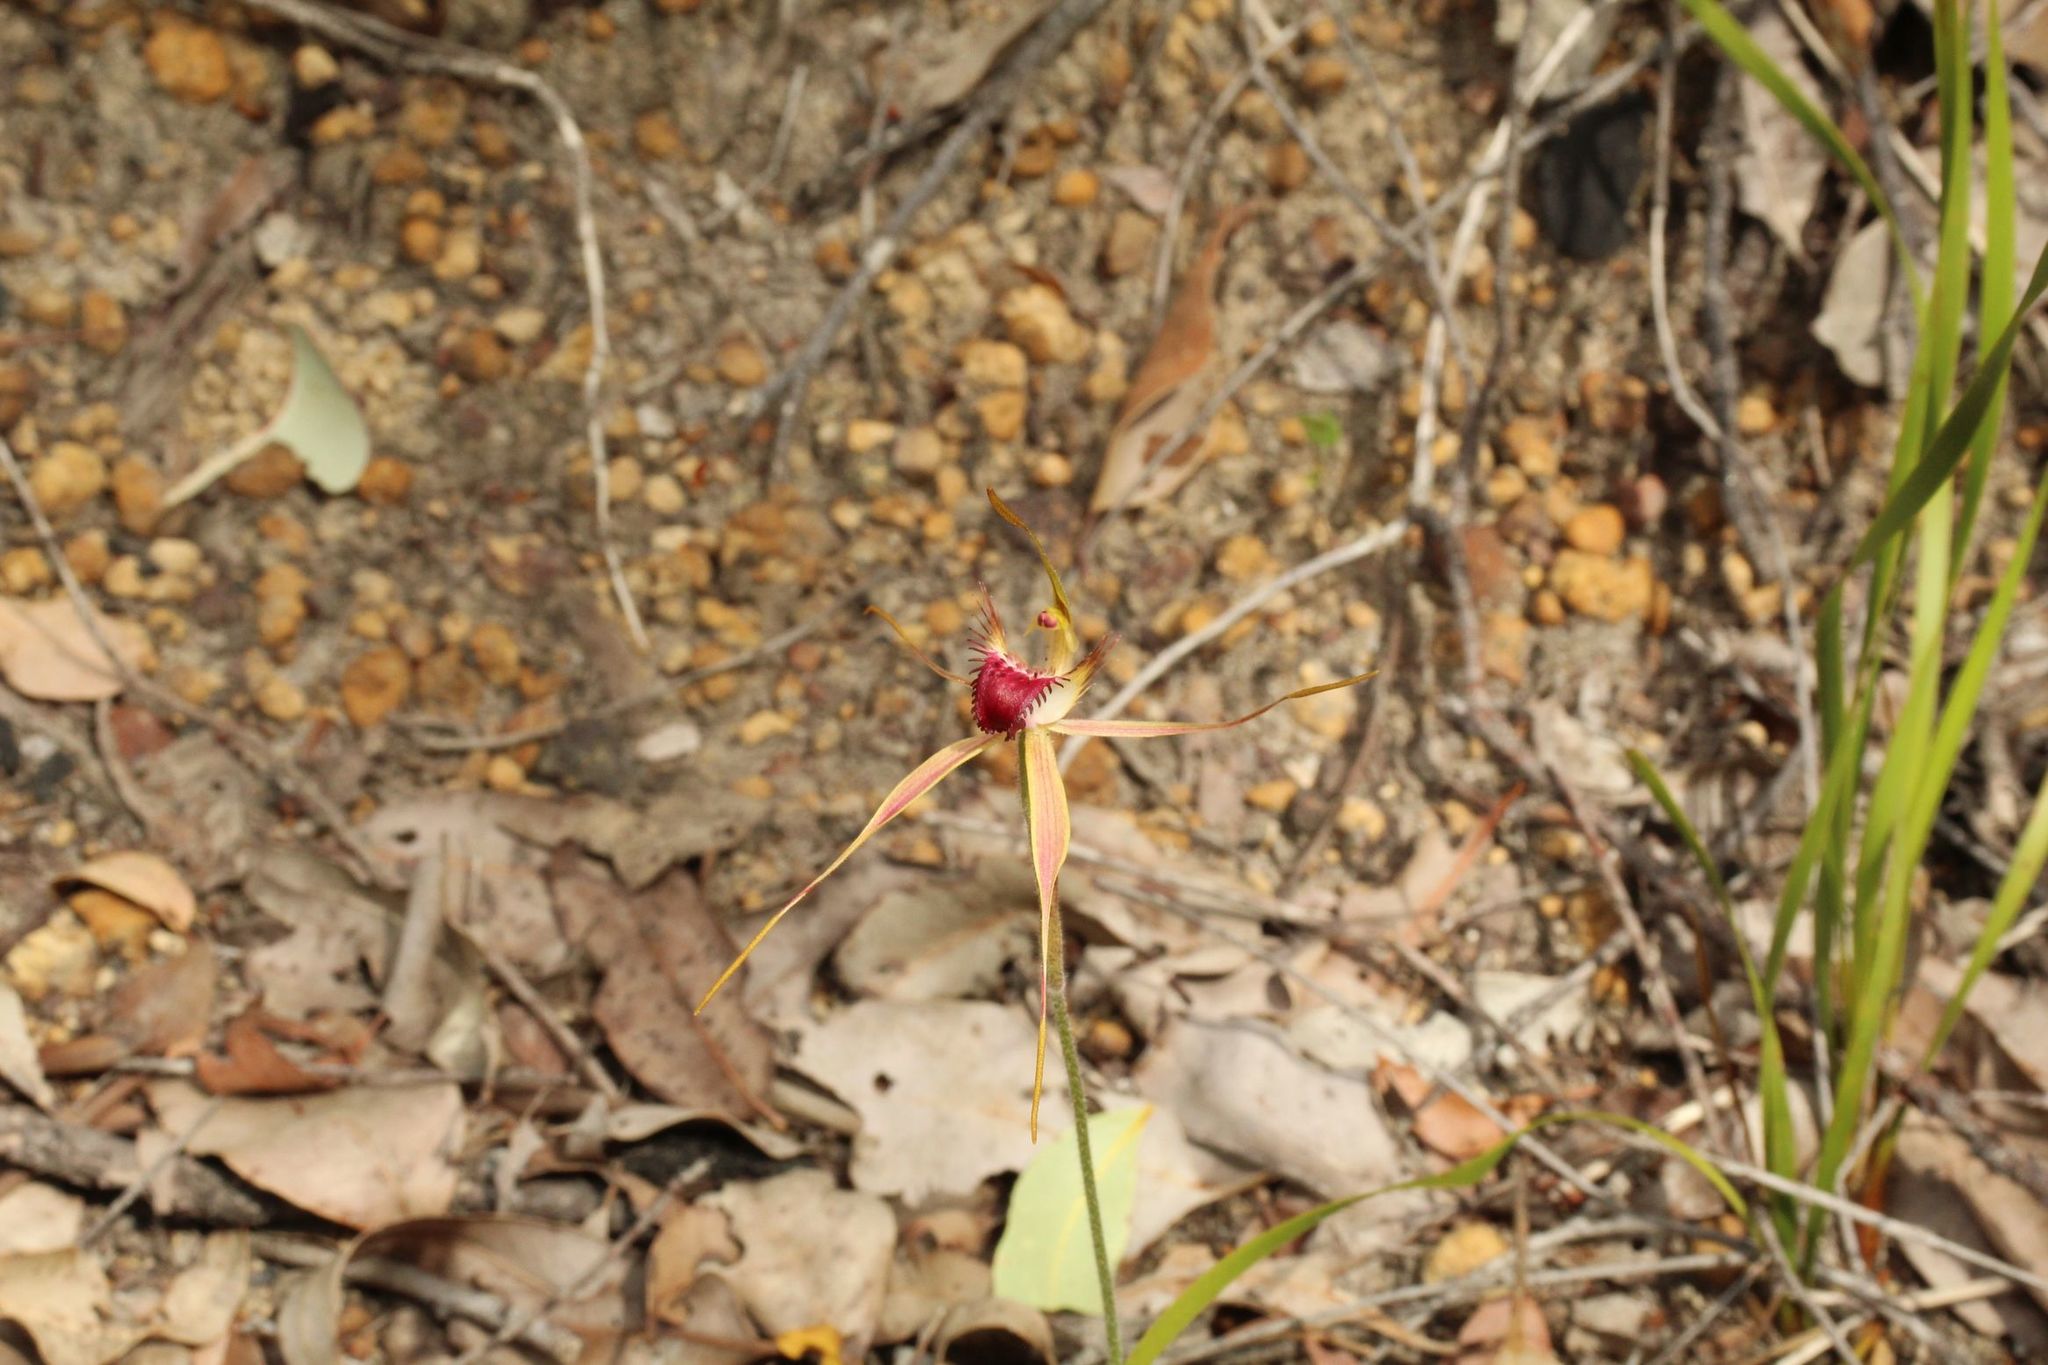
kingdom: Plantae
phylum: Tracheophyta
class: Liliopsida
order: Asparagales
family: Orchidaceae
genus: Caladenia
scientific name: Caladenia brownii
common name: Kari spider orchid
